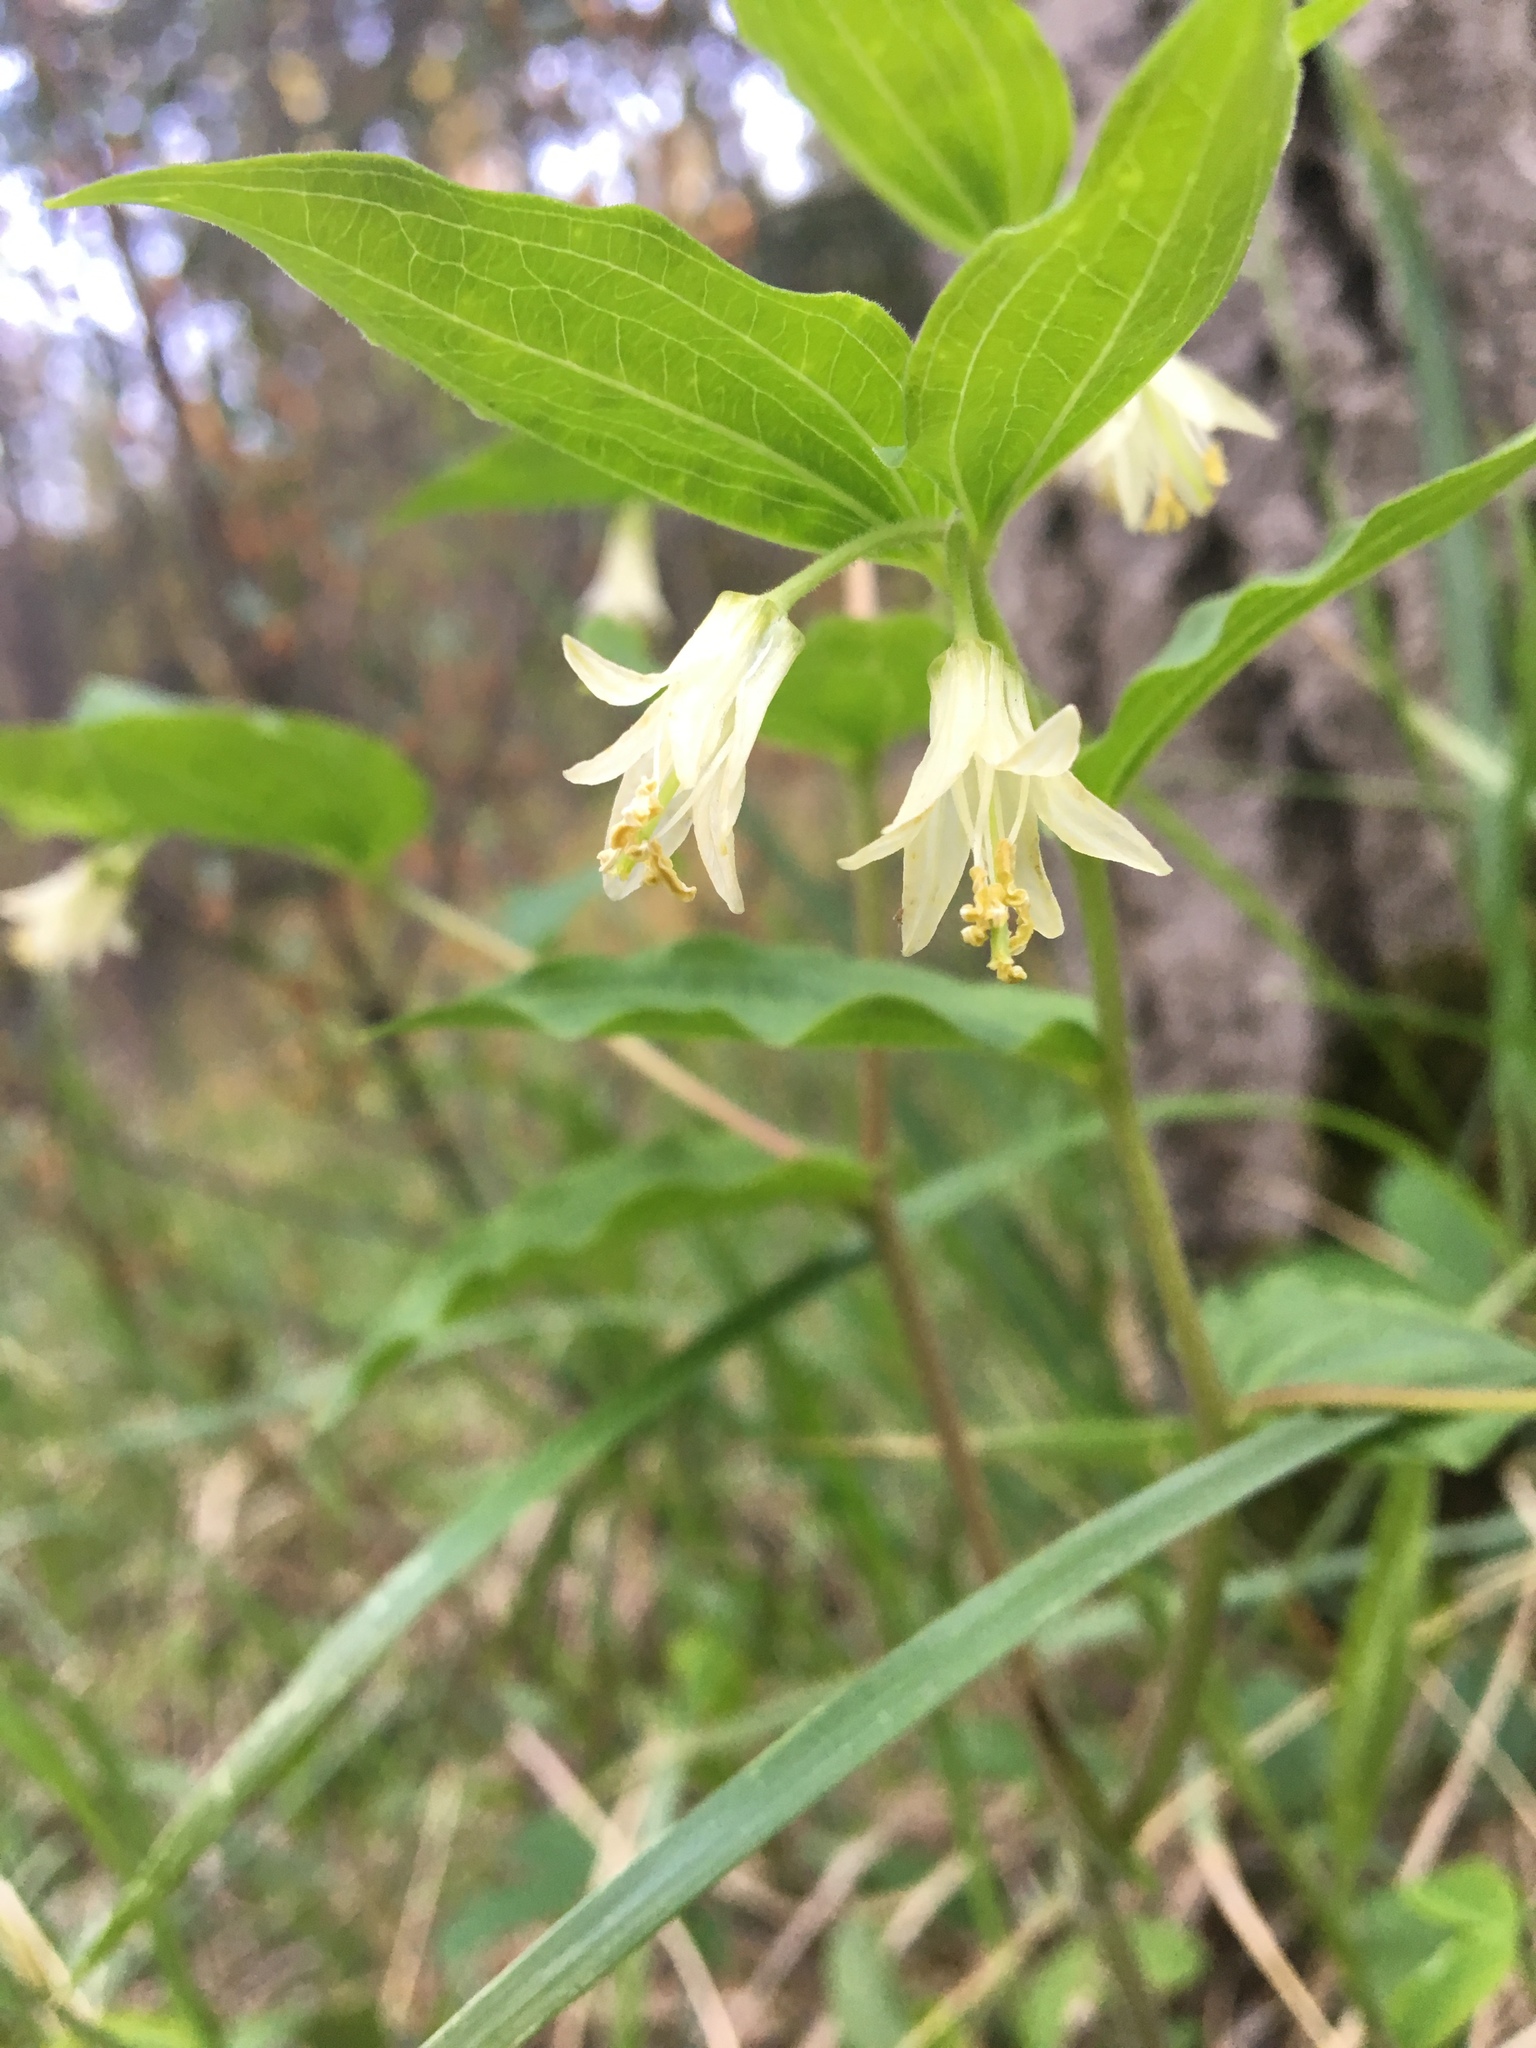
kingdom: Plantae
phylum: Tracheophyta
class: Liliopsida
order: Liliales
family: Liliaceae
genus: Prosartes
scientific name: Prosartes trachycarpa
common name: Rough-fruit fairy-bells
